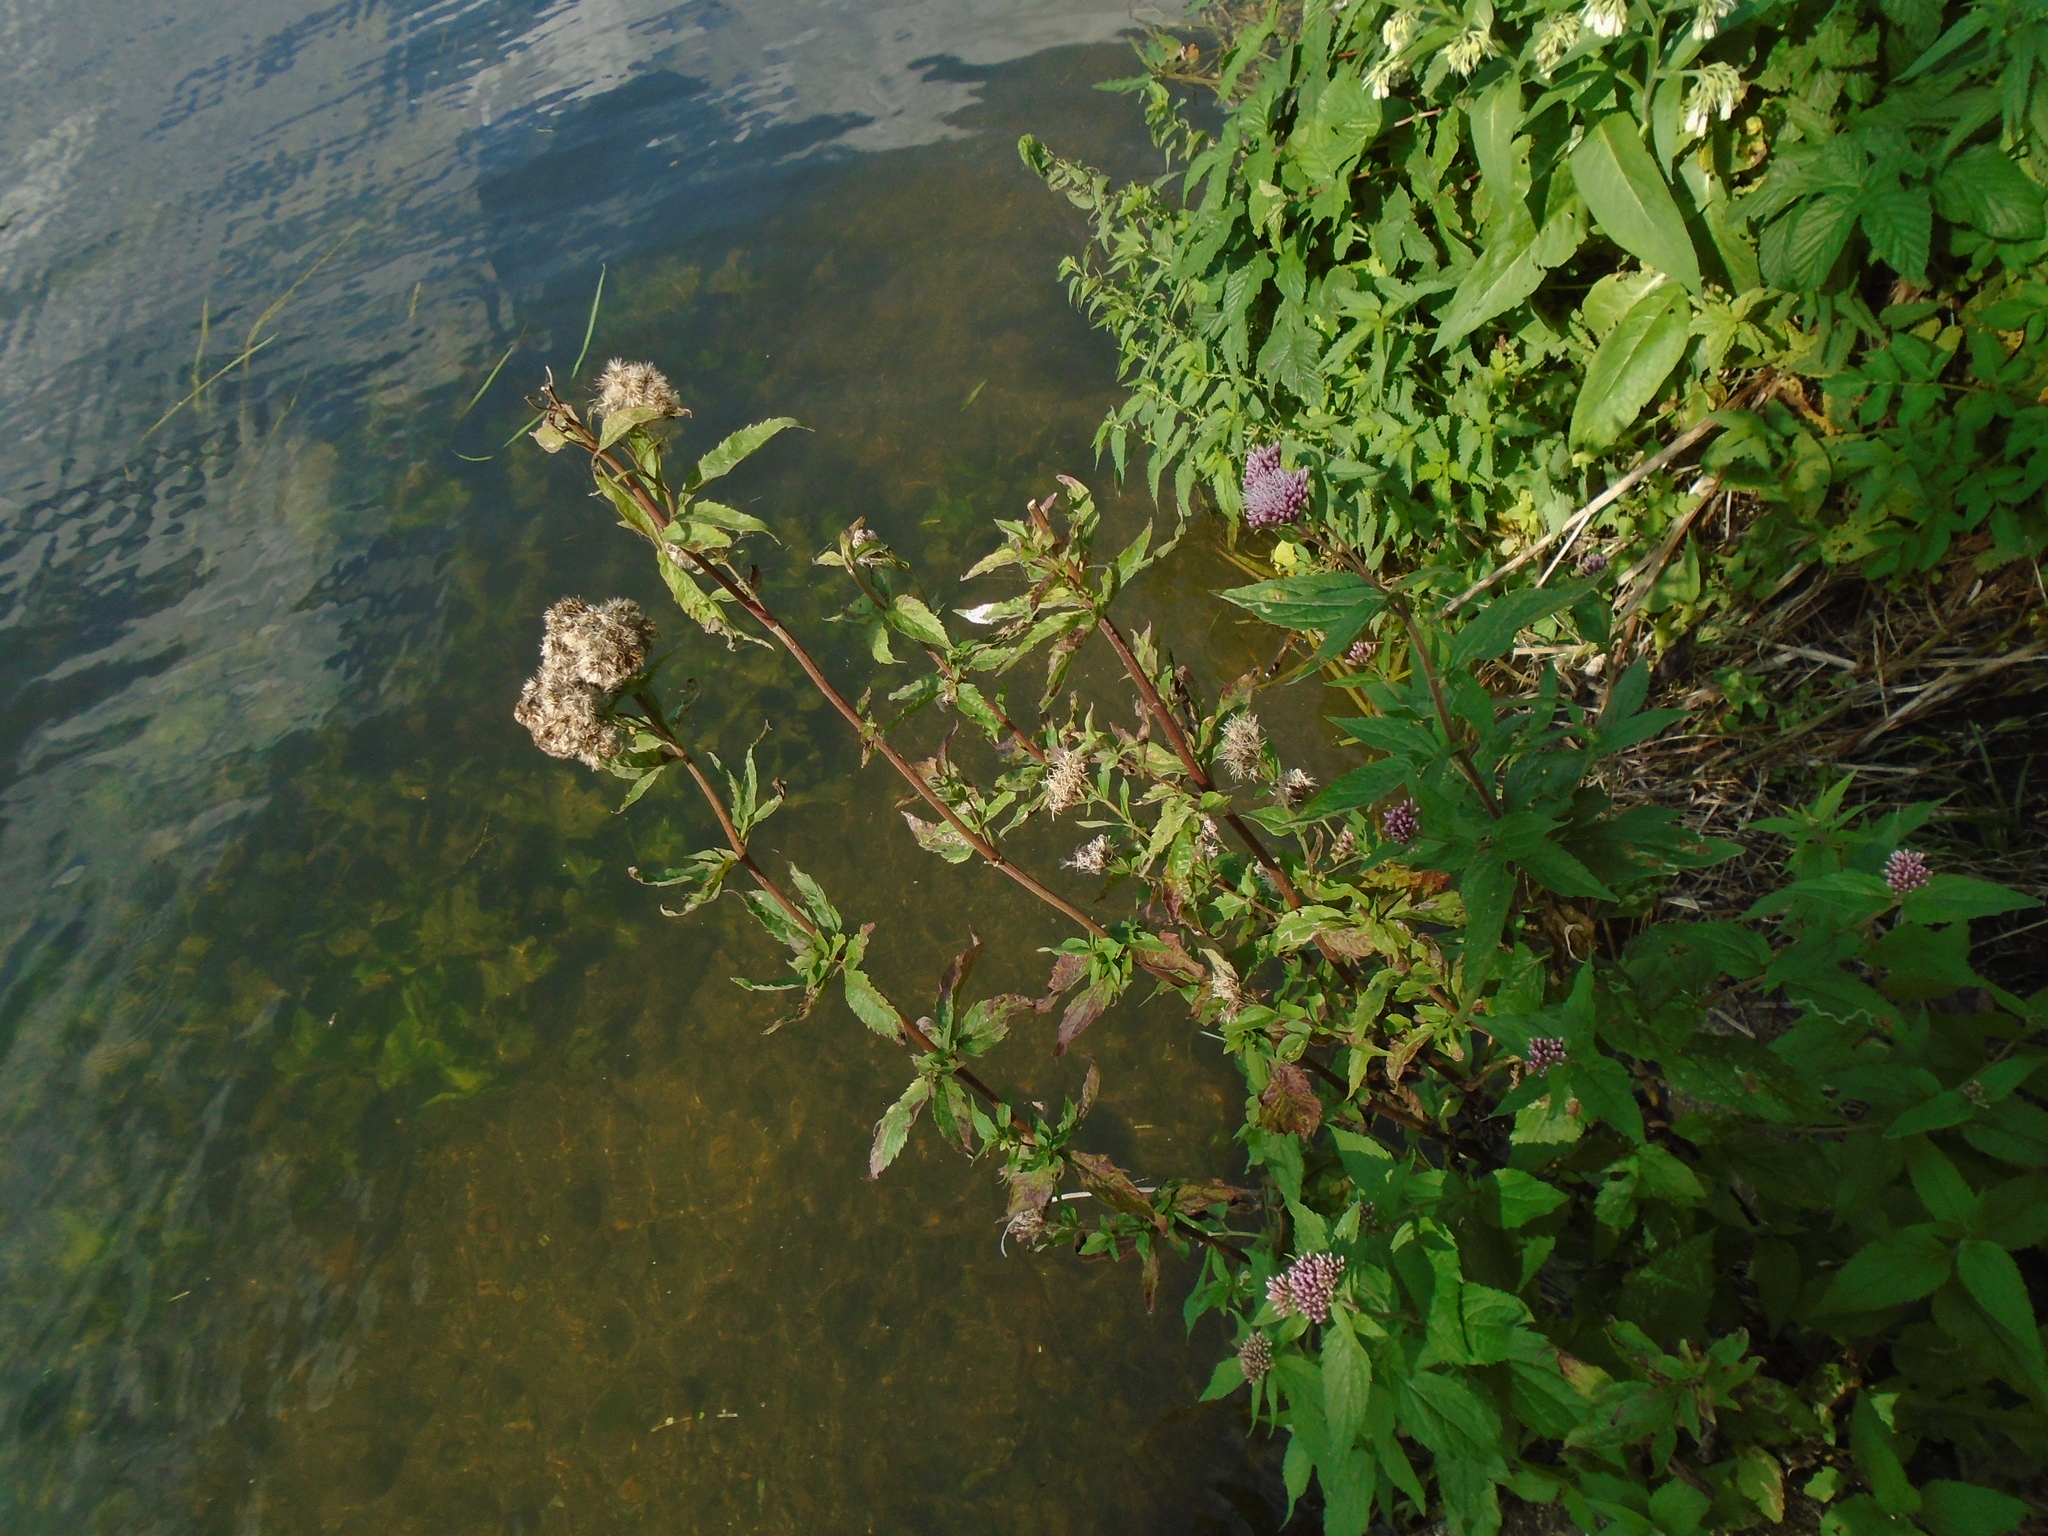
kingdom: Plantae
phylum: Tracheophyta
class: Magnoliopsida
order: Asterales
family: Asteraceae
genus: Eupatorium
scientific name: Eupatorium cannabinum
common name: Hemp-agrimony
